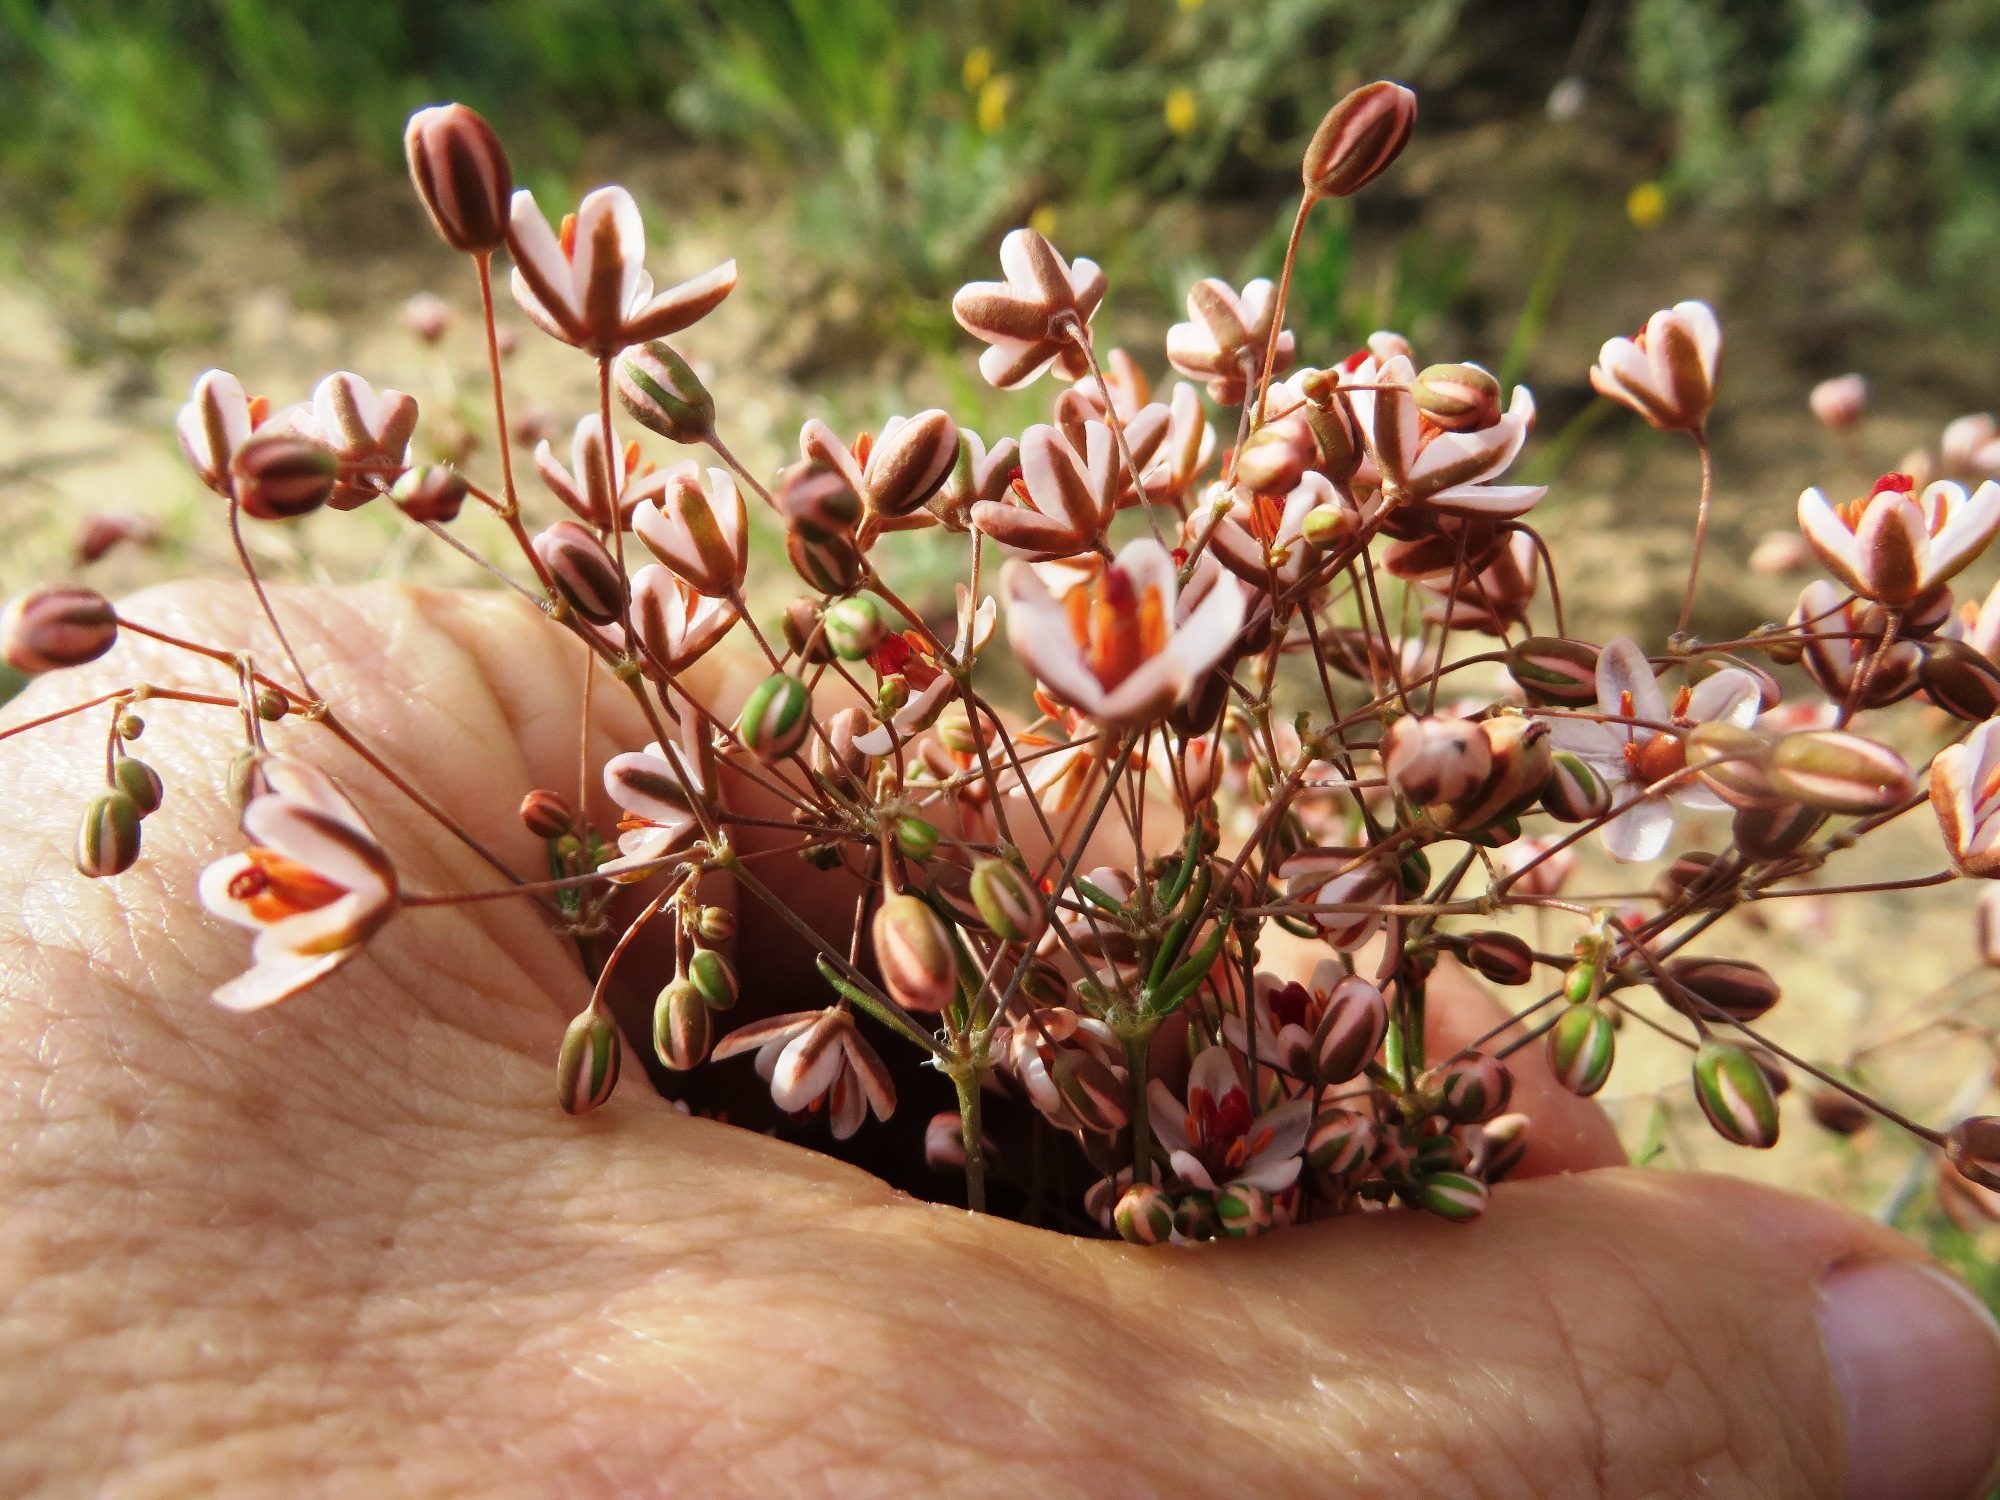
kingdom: Plantae
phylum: Tracheophyta
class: Magnoliopsida
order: Caryophyllales
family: Molluginaceae
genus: Pharnaceum
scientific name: Pharnaceum aurantium
